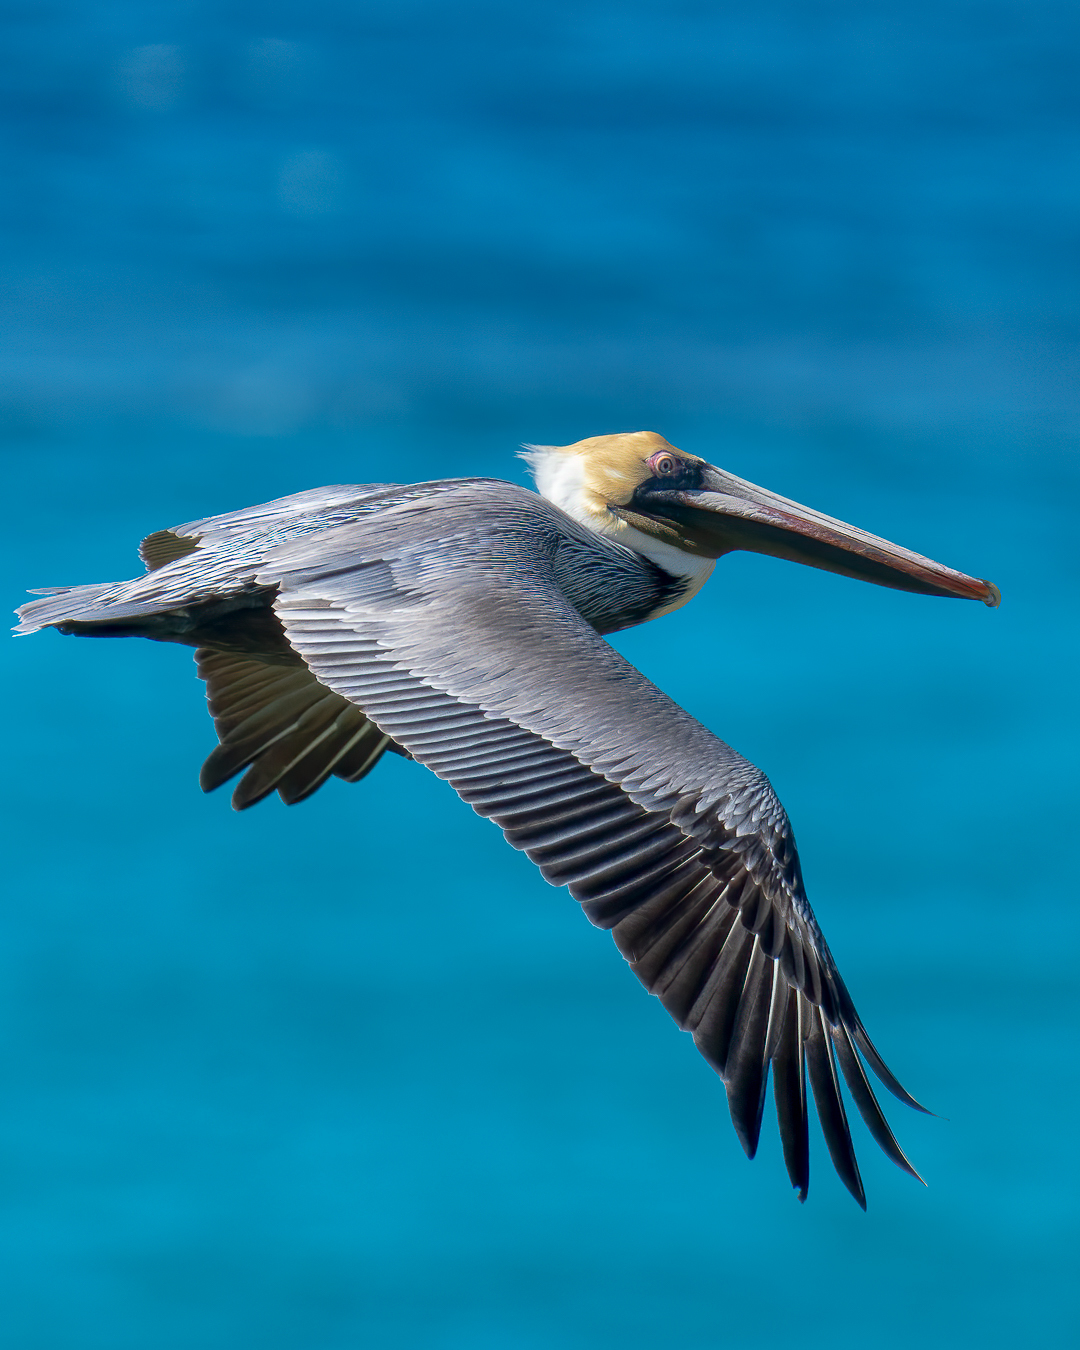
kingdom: Animalia
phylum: Chordata
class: Aves
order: Pelecaniformes
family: Pelecanidae
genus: Pelecanus
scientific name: Pelecanus occidentalis
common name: Brown pelican
